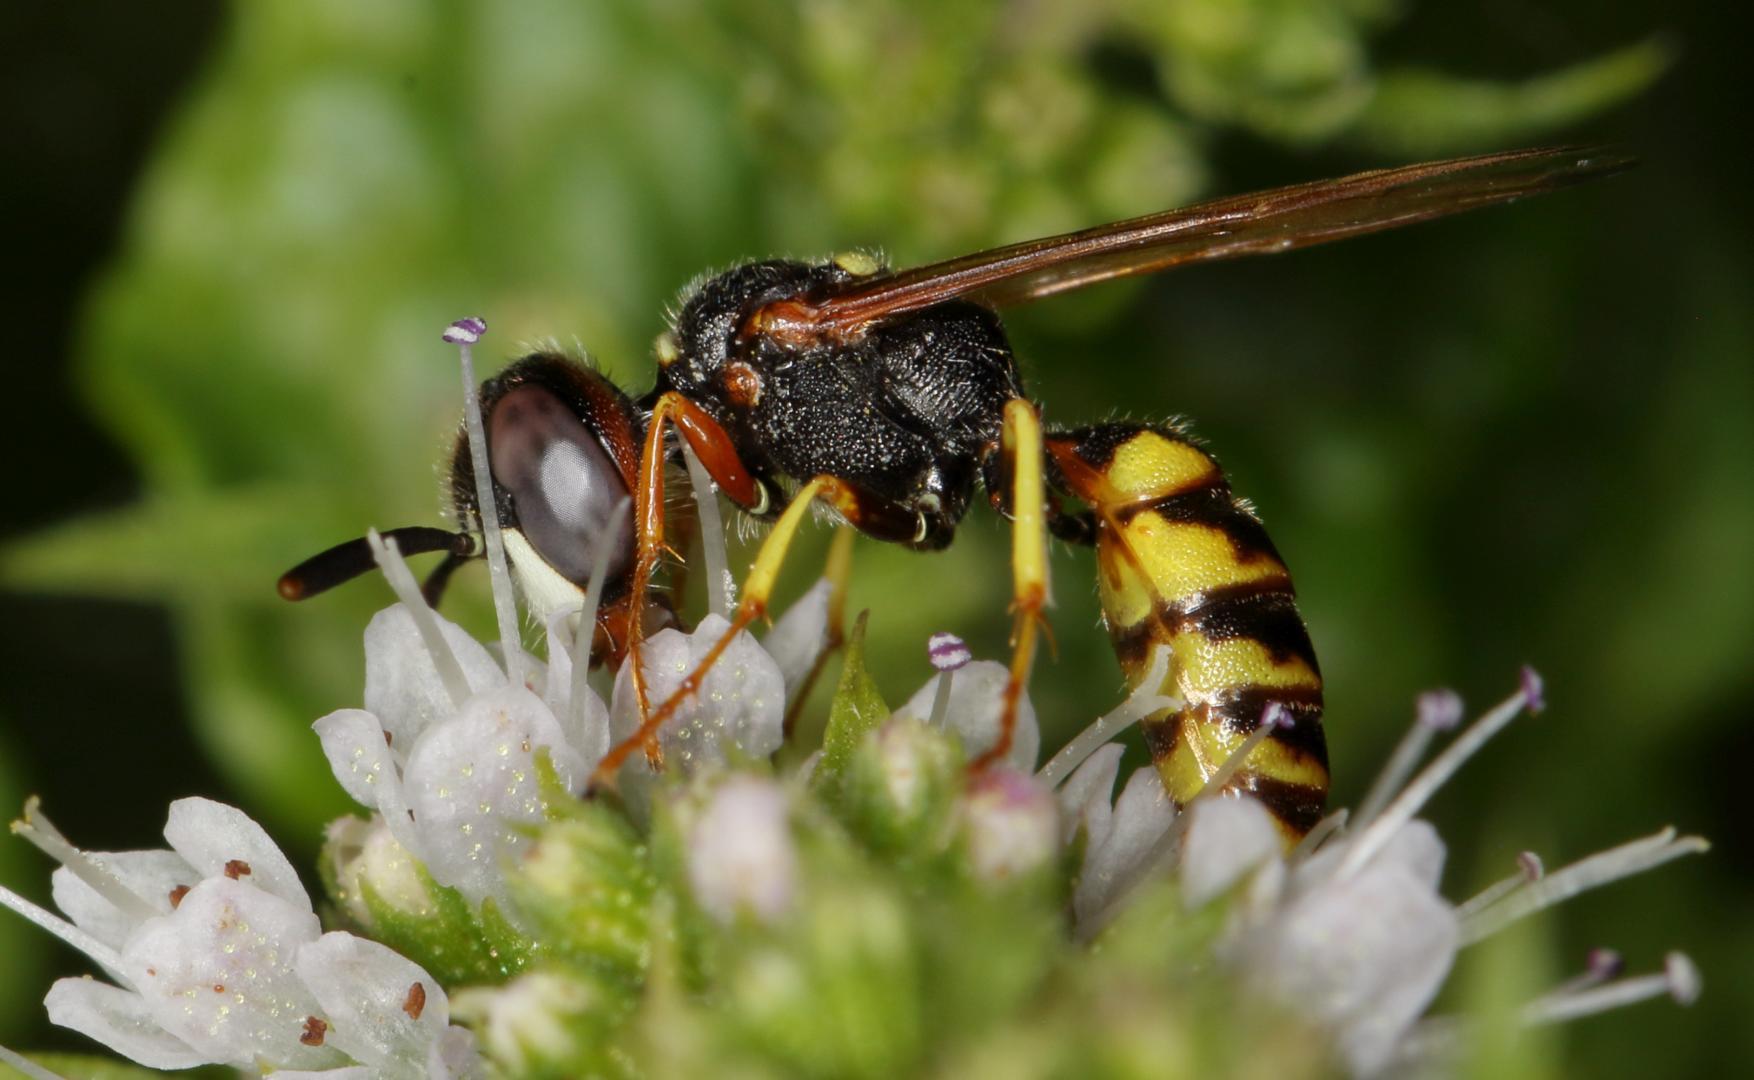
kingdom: Animalia
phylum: Arthropoda
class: Insecta
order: Hymenoptera
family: Crabronidae
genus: Philanthus
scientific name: Philanthus triangulum
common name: Bee wolf
